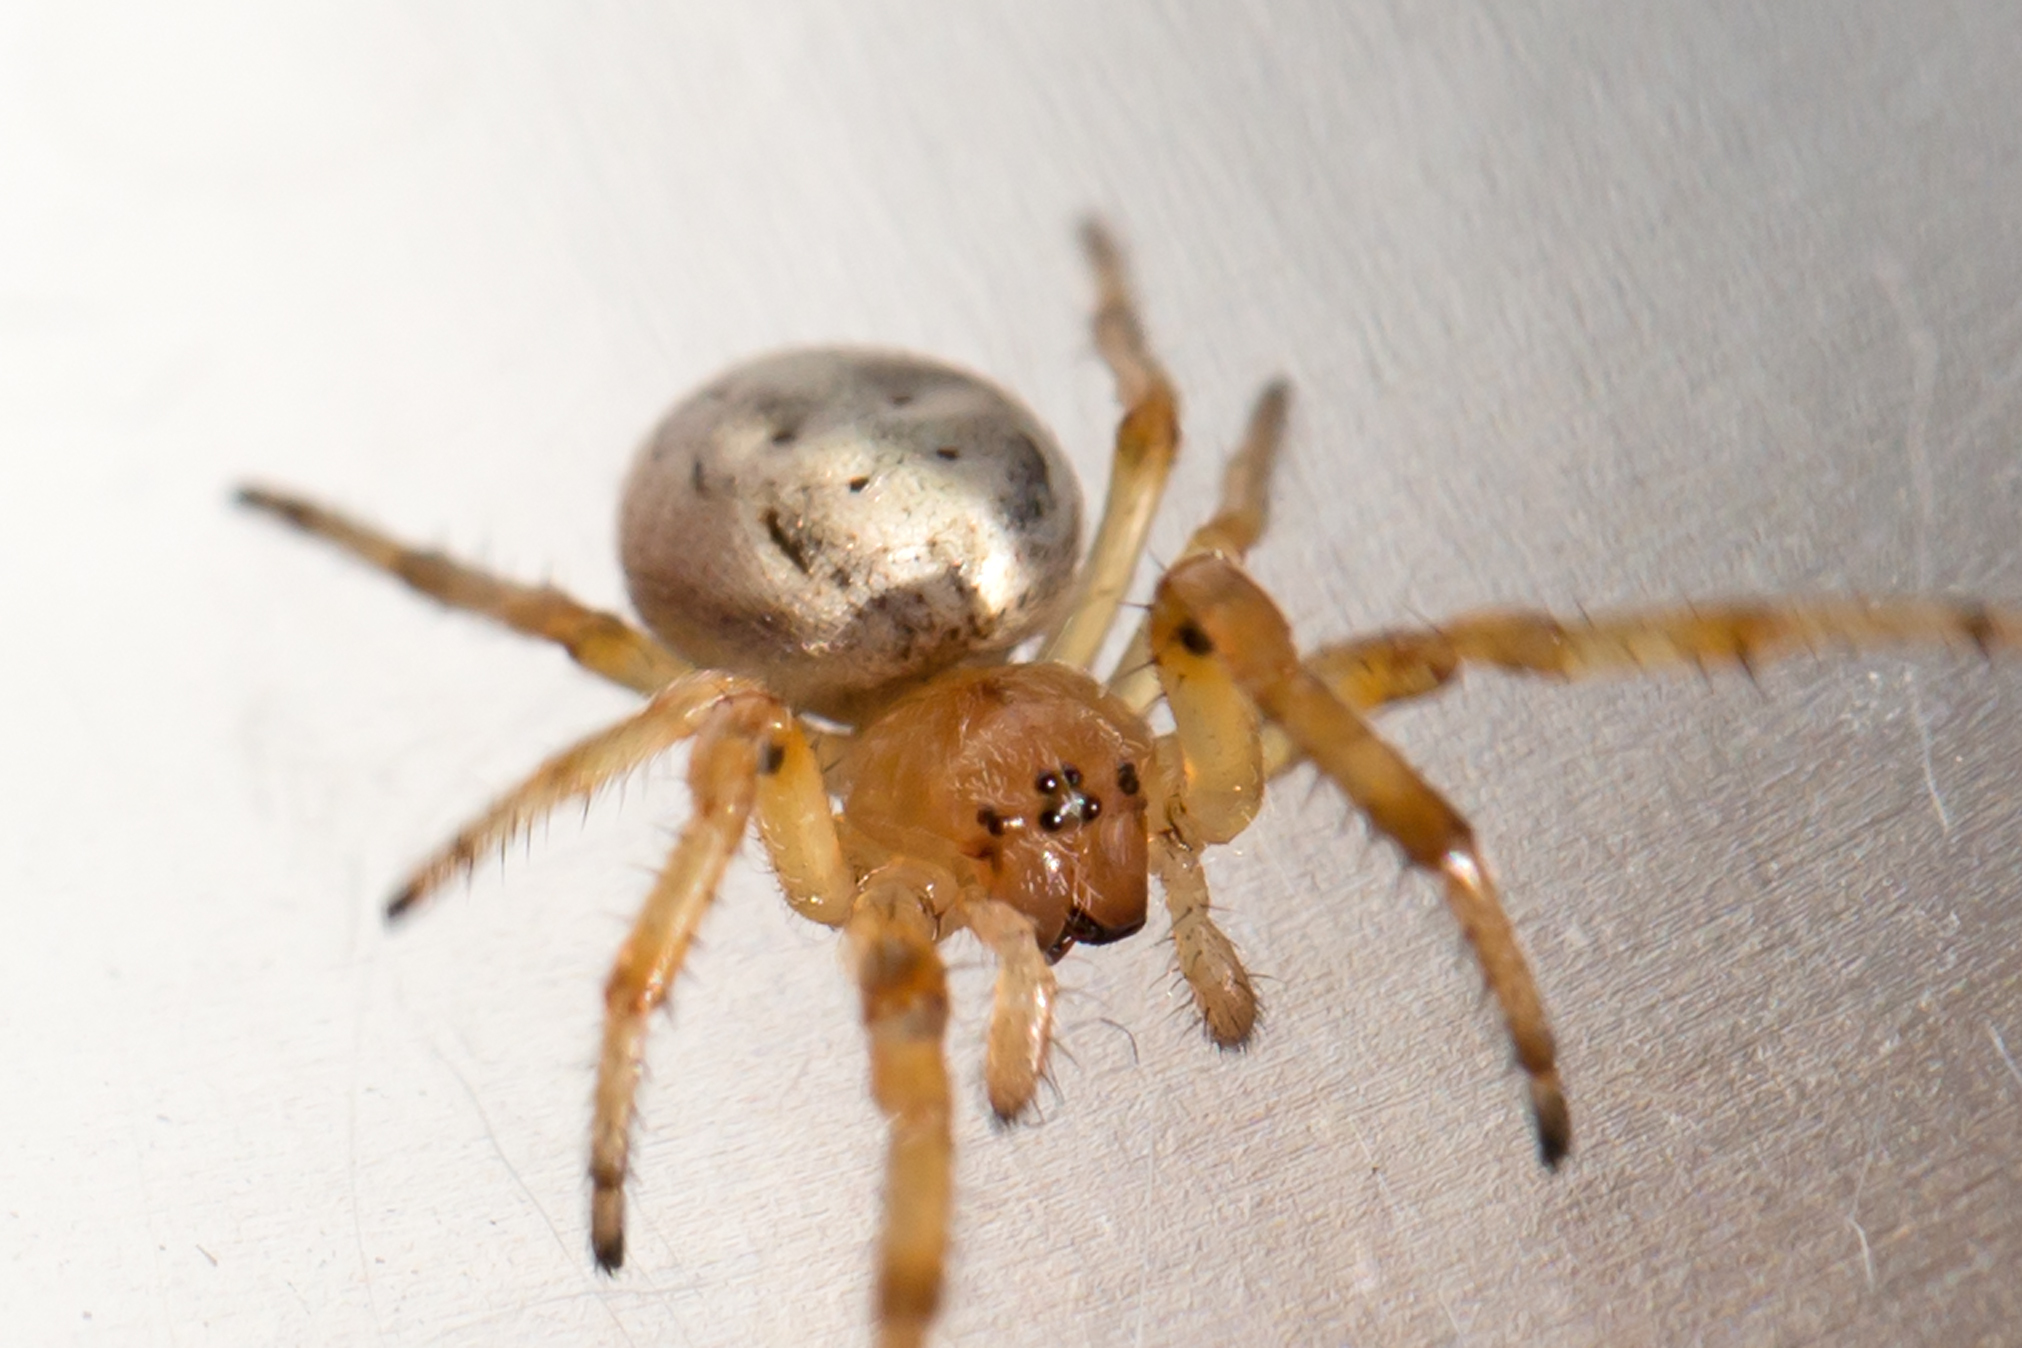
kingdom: Animalia
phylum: Arthropoda
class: Arachnida
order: Araneae
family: Araneidae
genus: Larinioides
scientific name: Larinioides cornutus
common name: Furrow orbweaver
